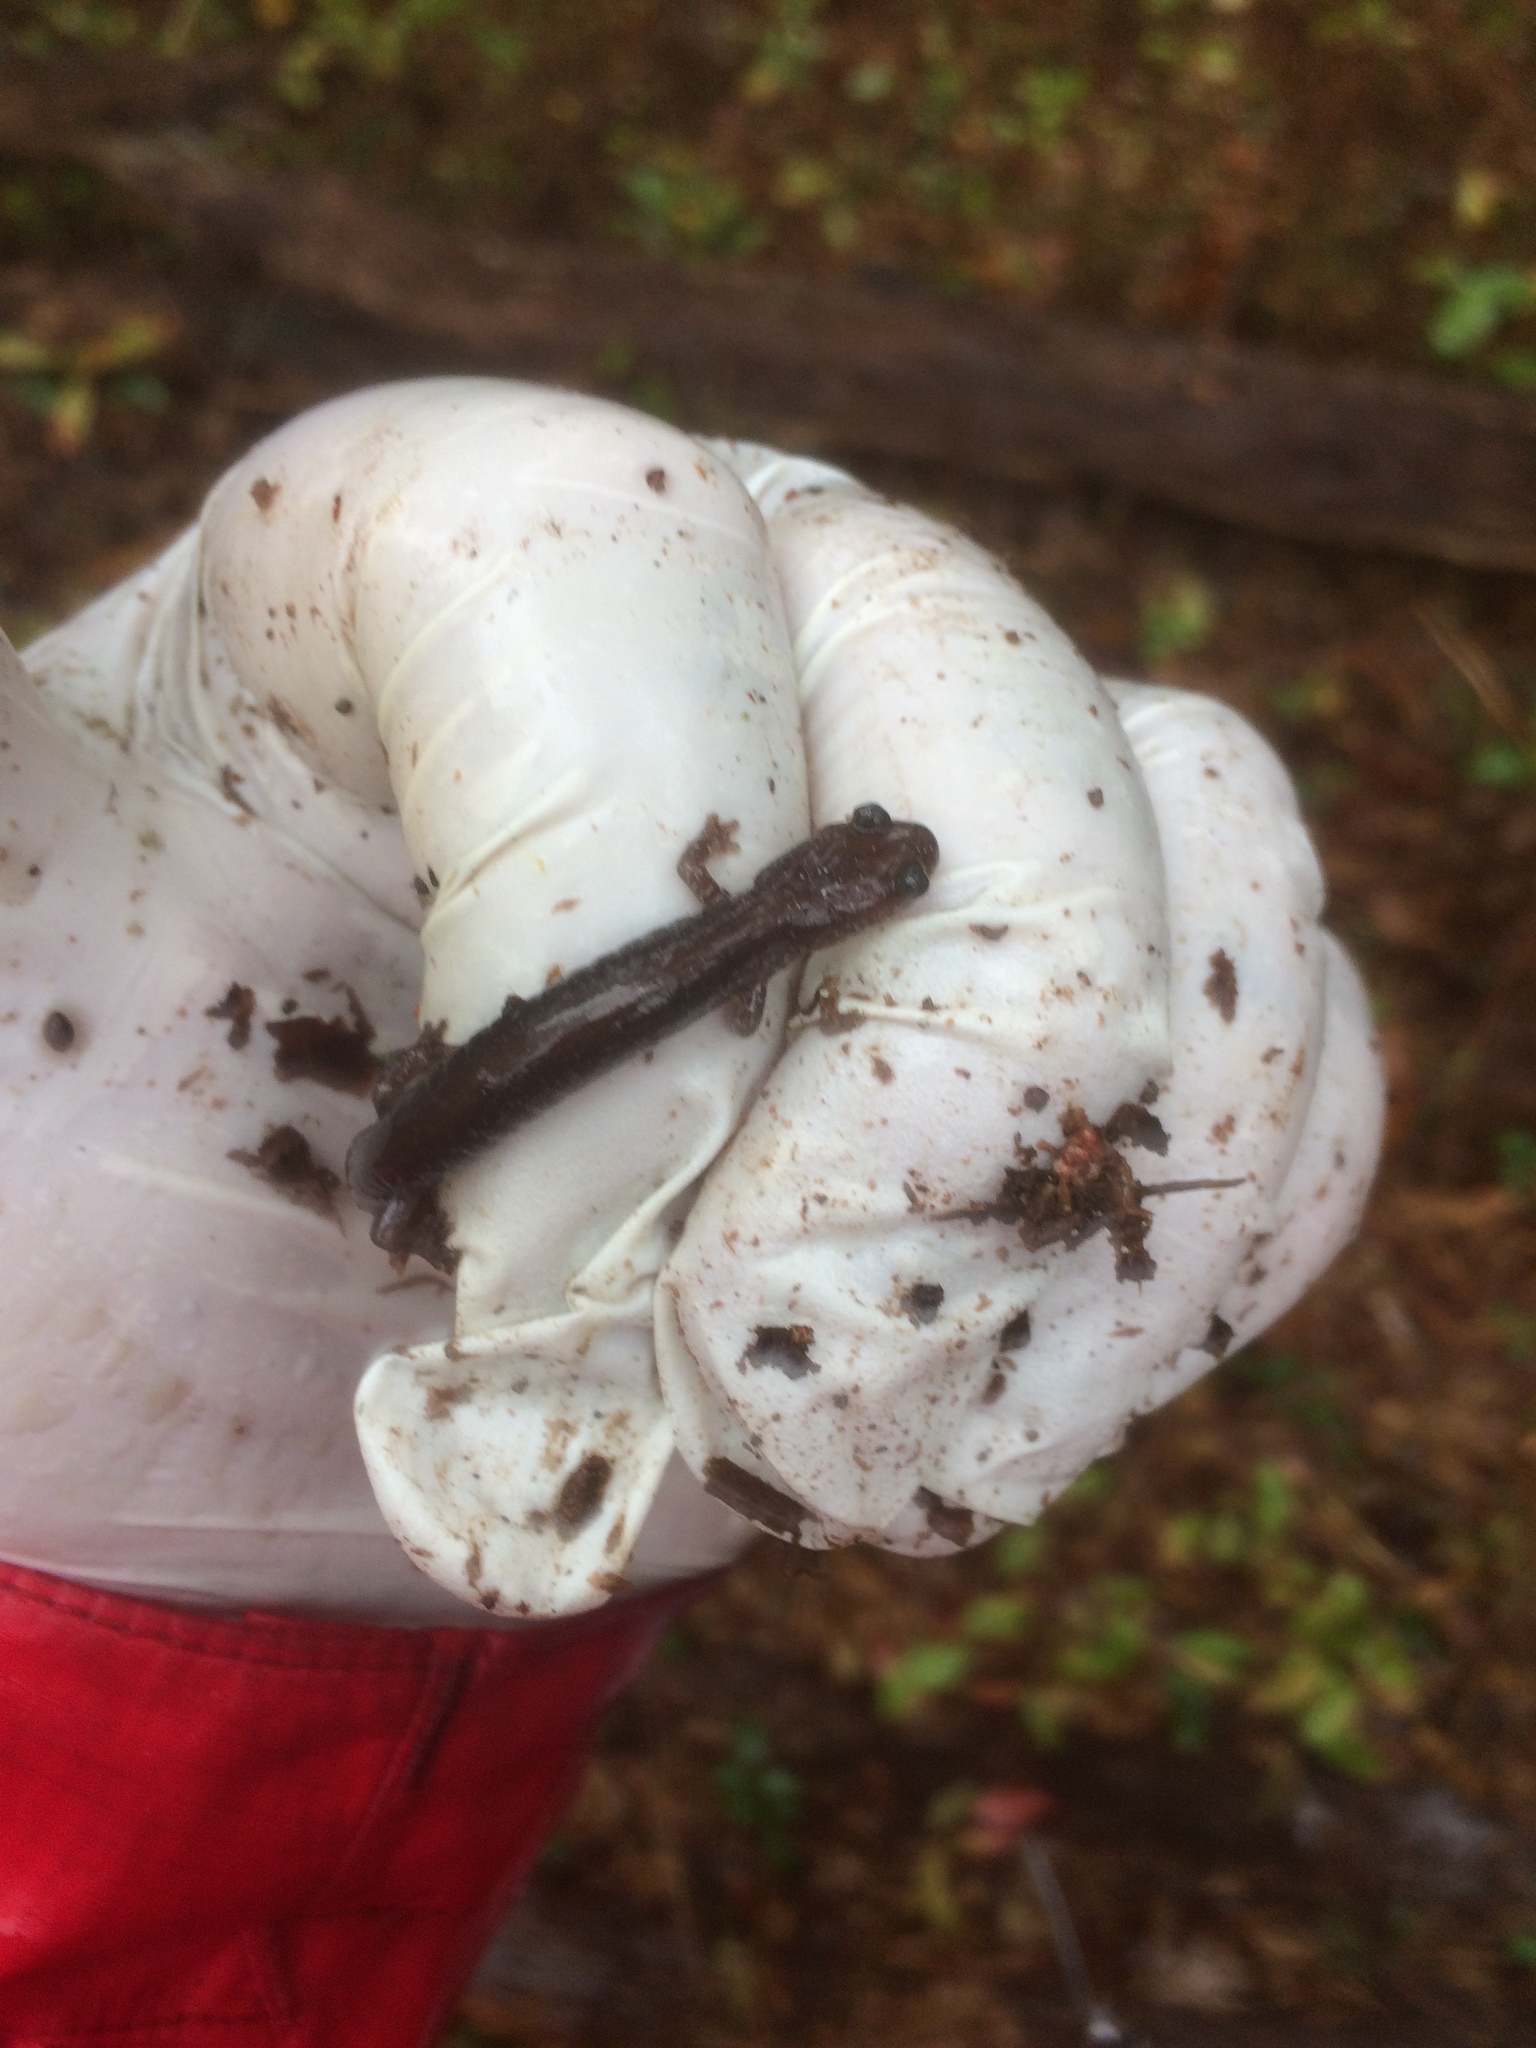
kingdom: Animalia
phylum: Chordata
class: Amphibia
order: Caudata
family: Plethodontidae
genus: Plethodon
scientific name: Plethodon cinereus
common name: Redback salamander
